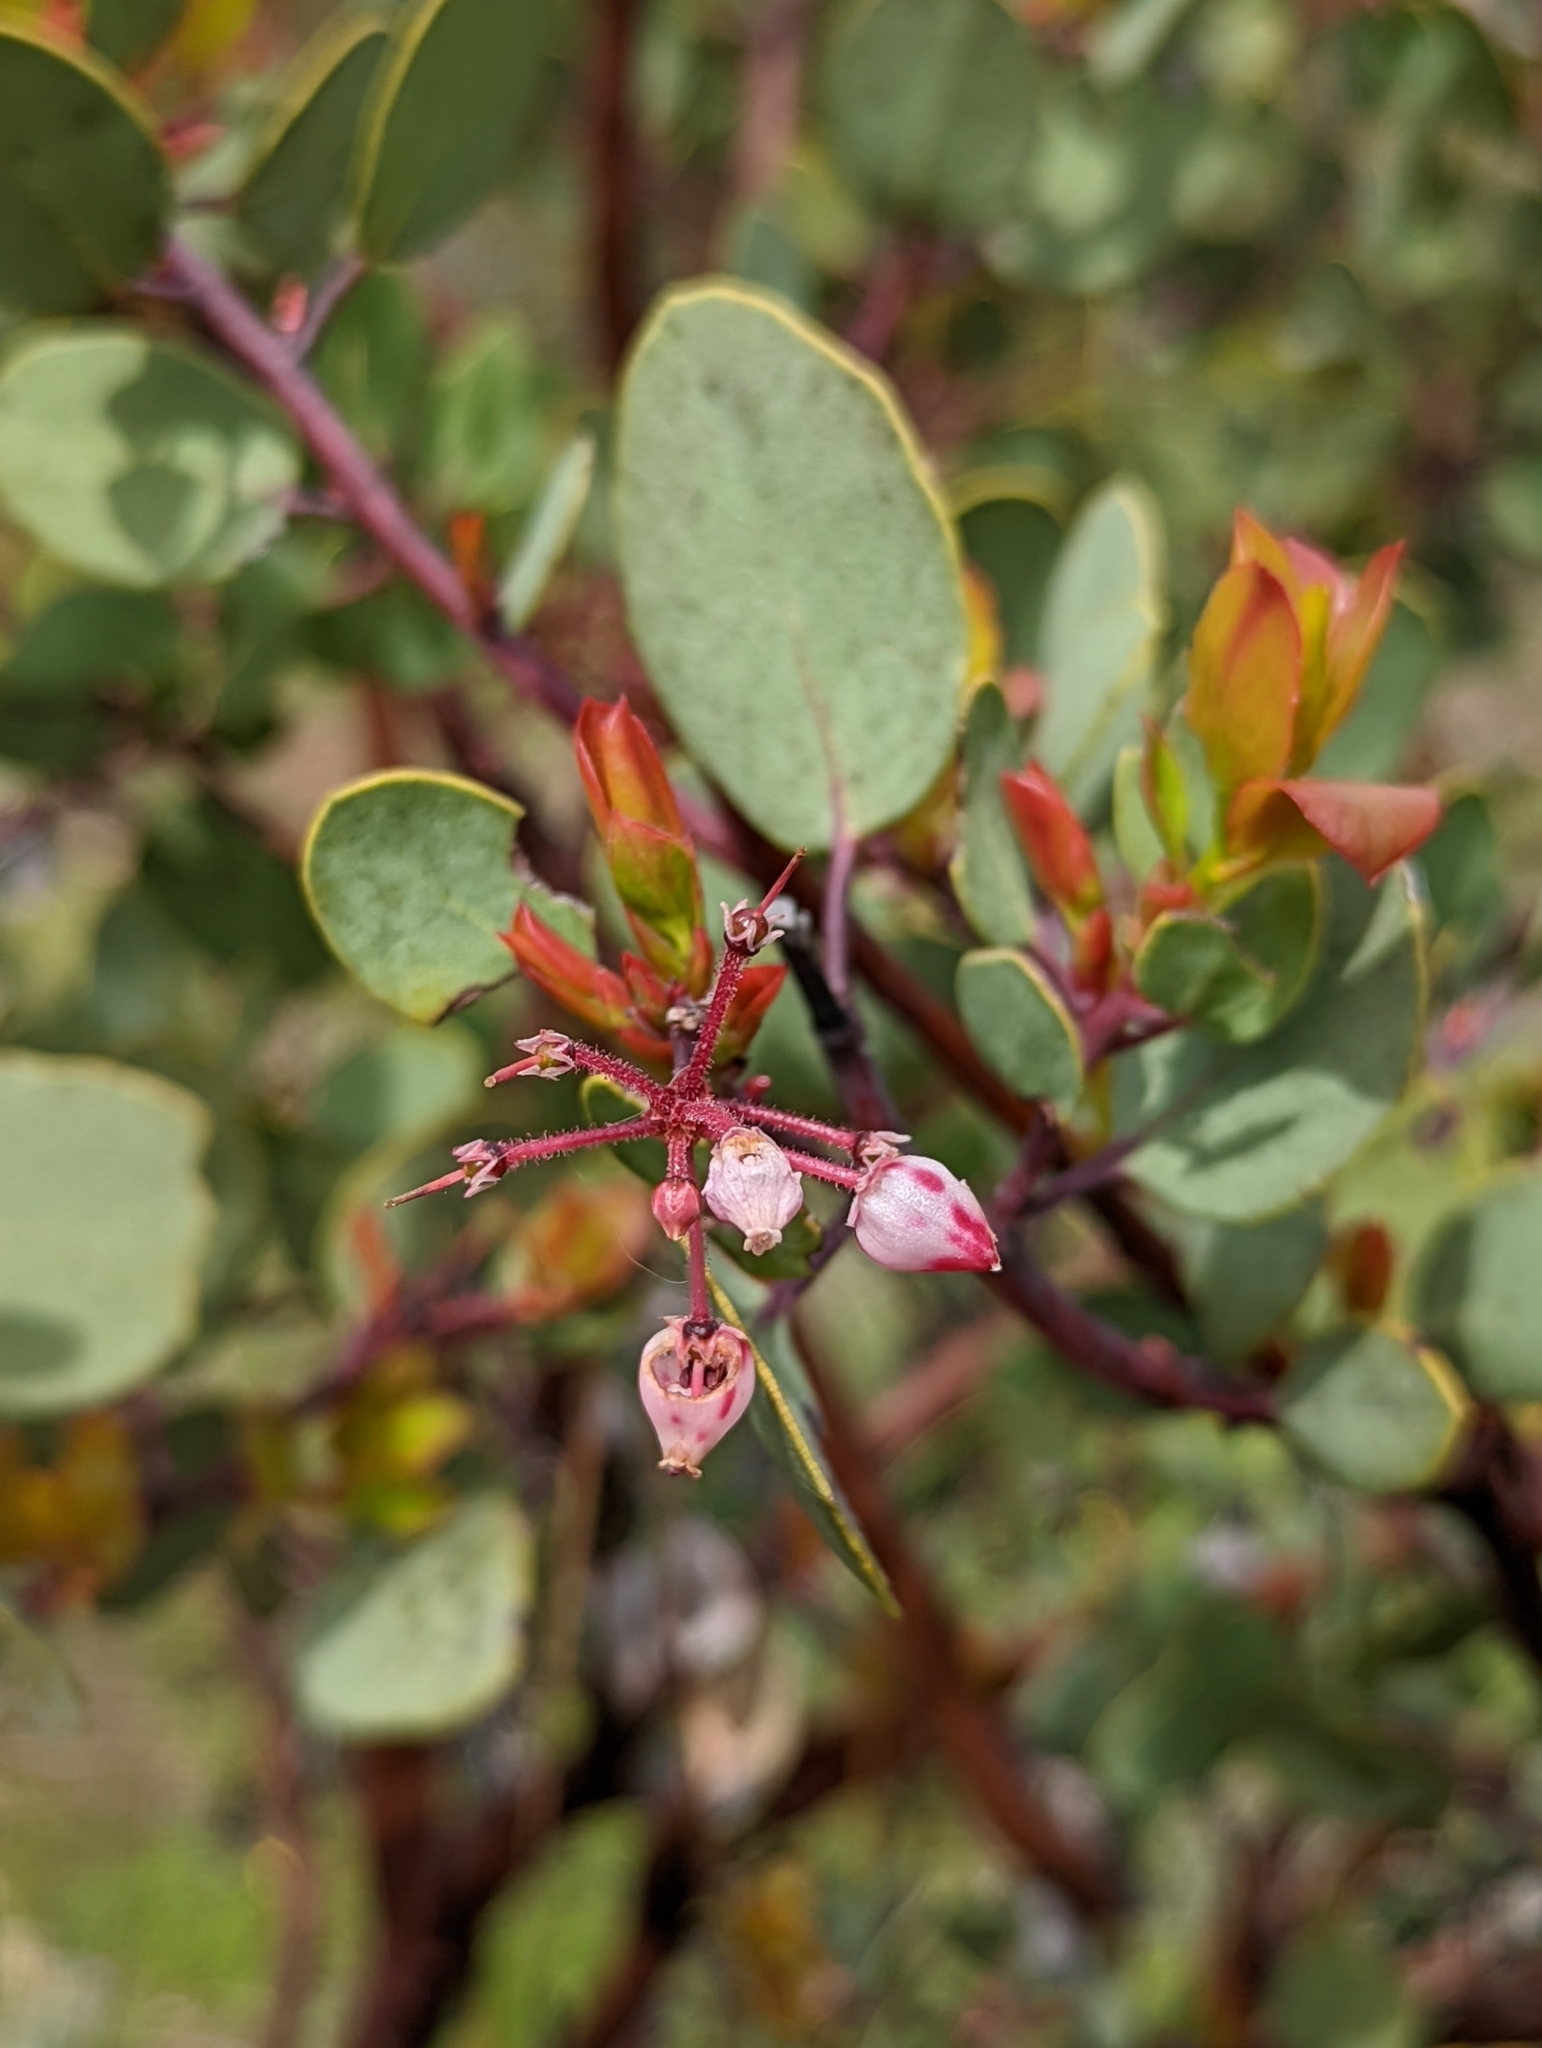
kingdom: Plantae
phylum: Tracheophyta
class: Magnoliopsida
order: Ericales
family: Ericaceae
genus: Arctostaphylos
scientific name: Arctostaphylos viscida
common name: White-leaf manzanita
